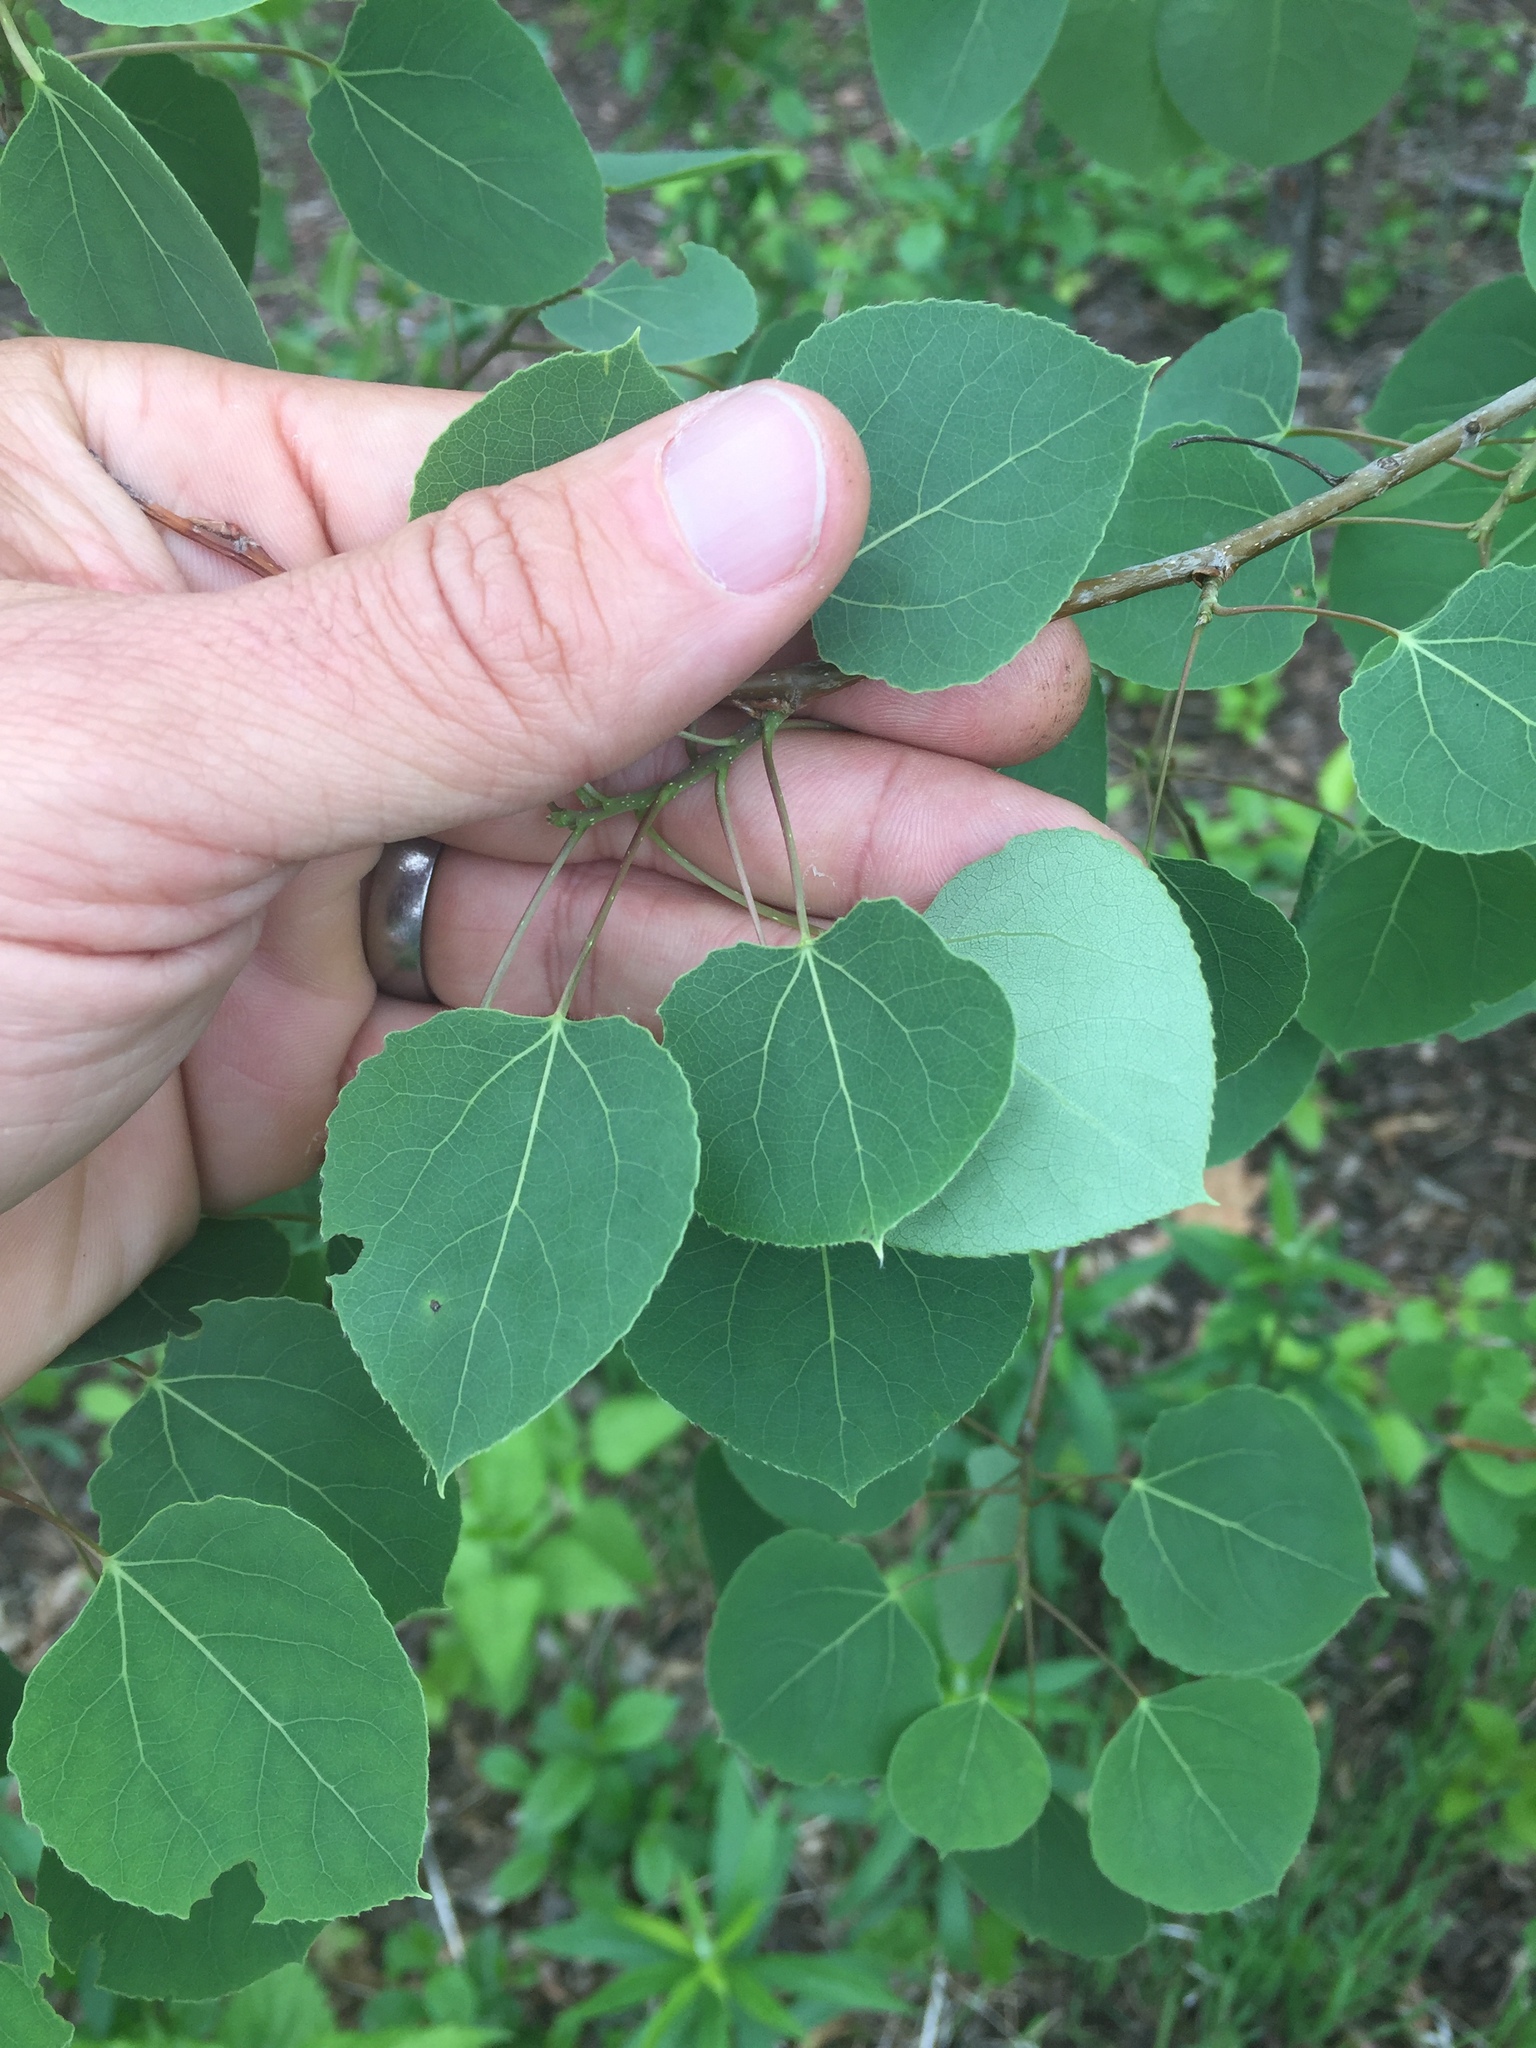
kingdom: Plantae
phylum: Tracheophyta
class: Magnoliopsida
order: Malpighiales
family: Salicaceae
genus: Populus
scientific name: Populus tremuloides
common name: Quaking aspen
